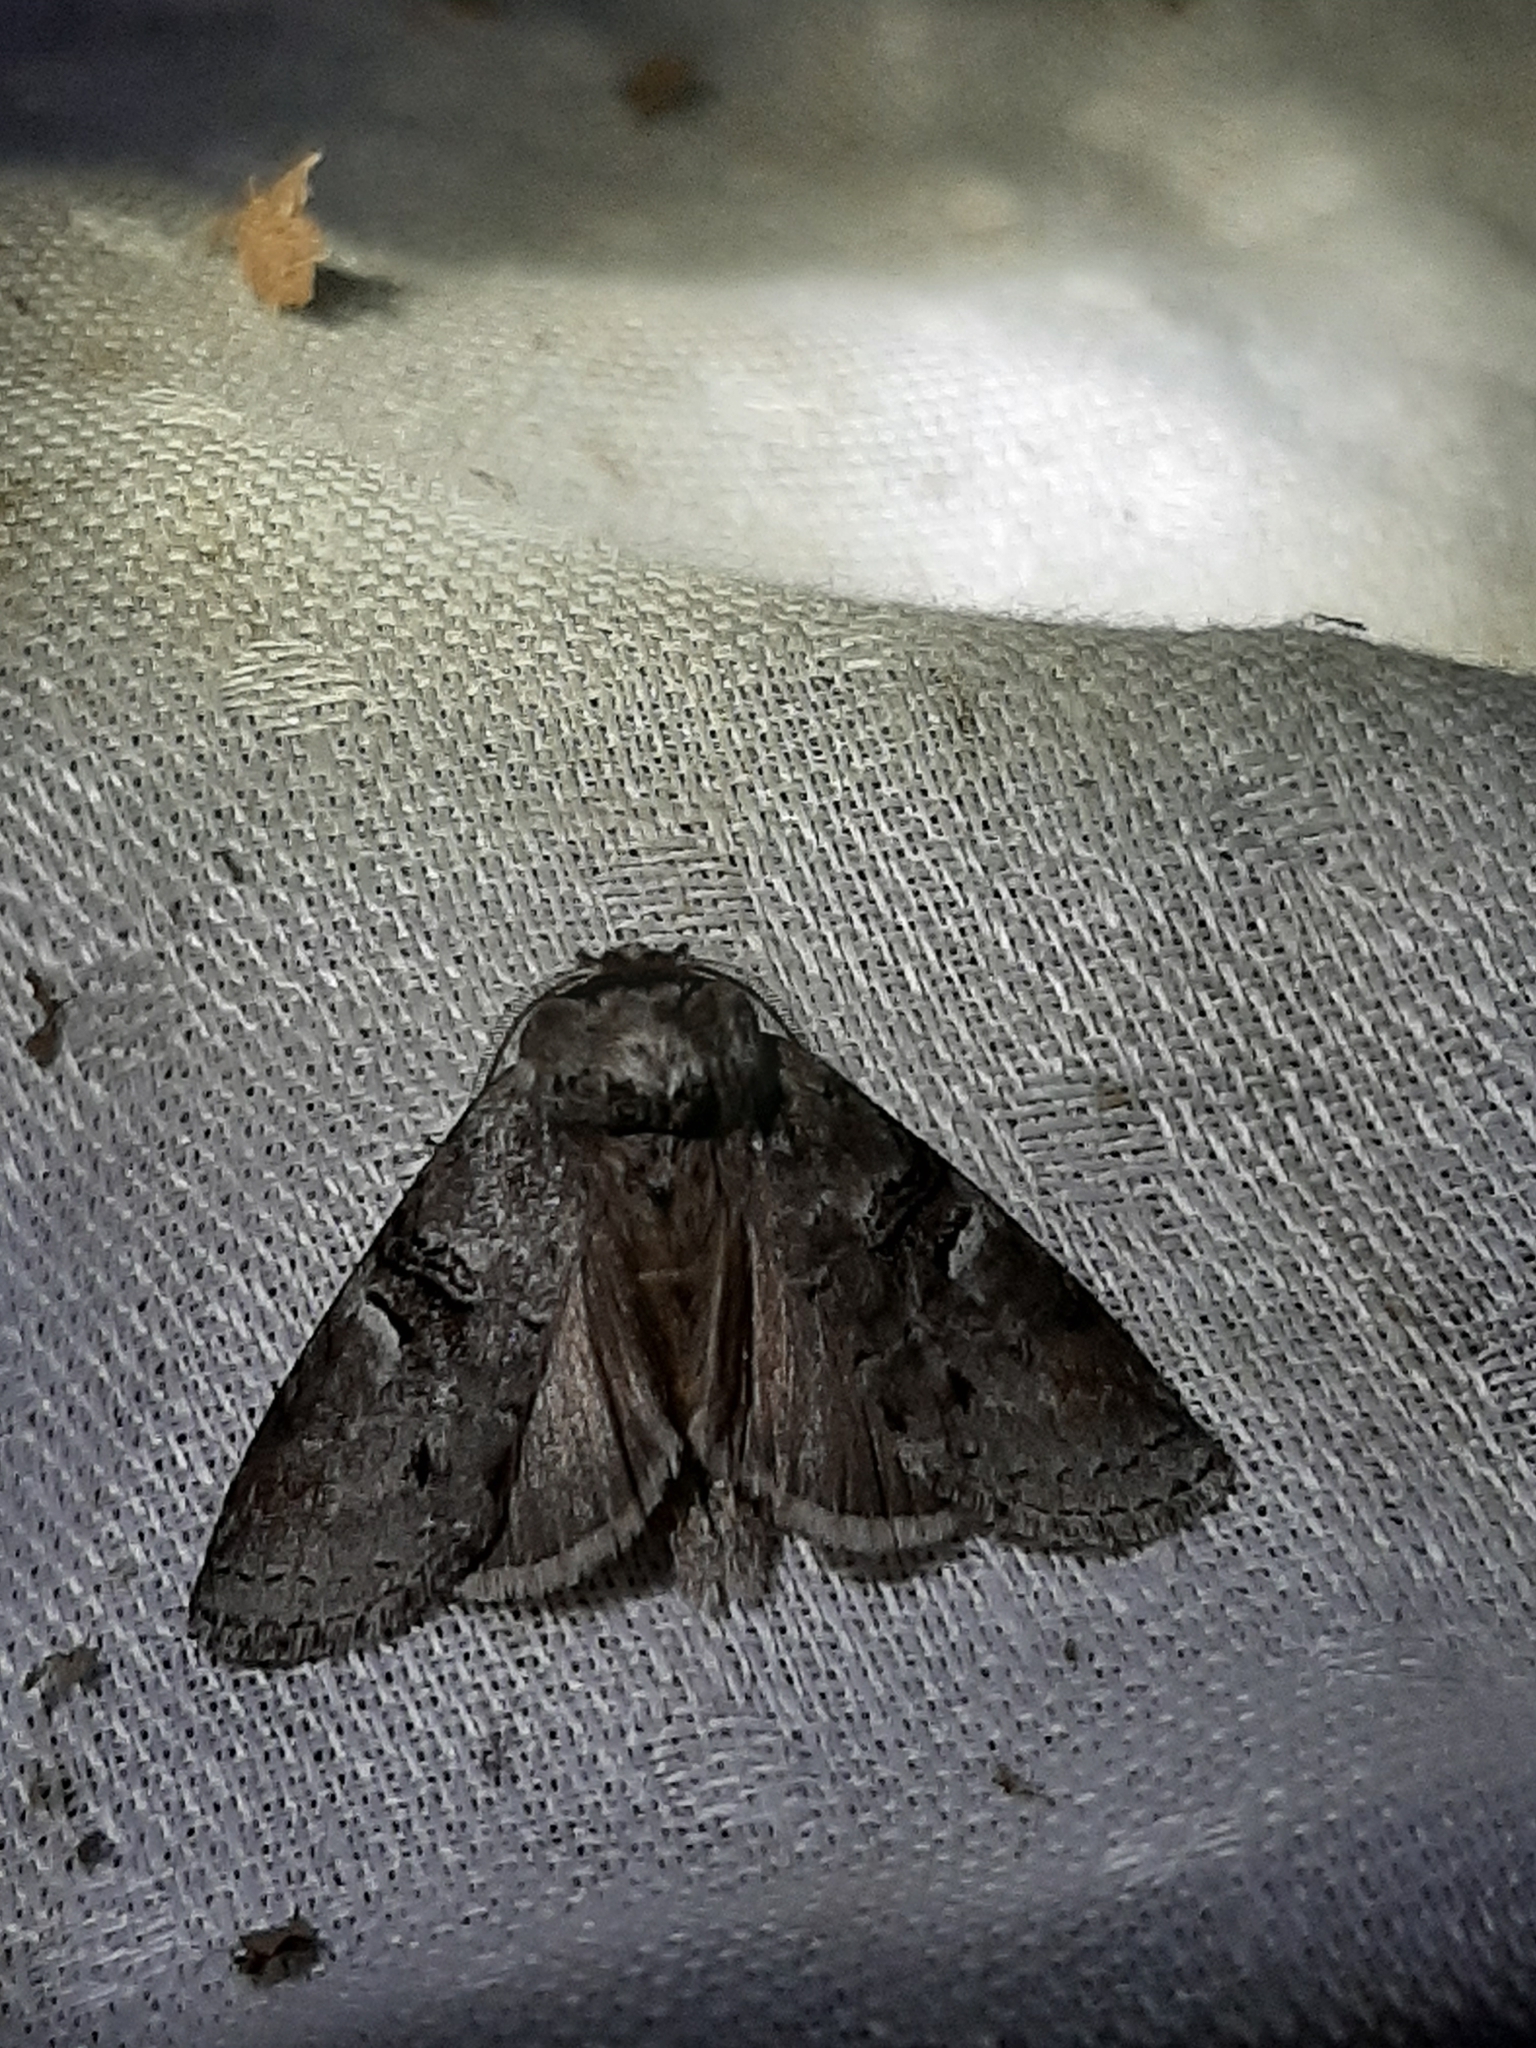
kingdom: Animalia
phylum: Arthropoda
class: Insecta
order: Lepidoptera
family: Notodontidae
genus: Ellida
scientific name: Ellida caniplaga
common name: Linden prominent
